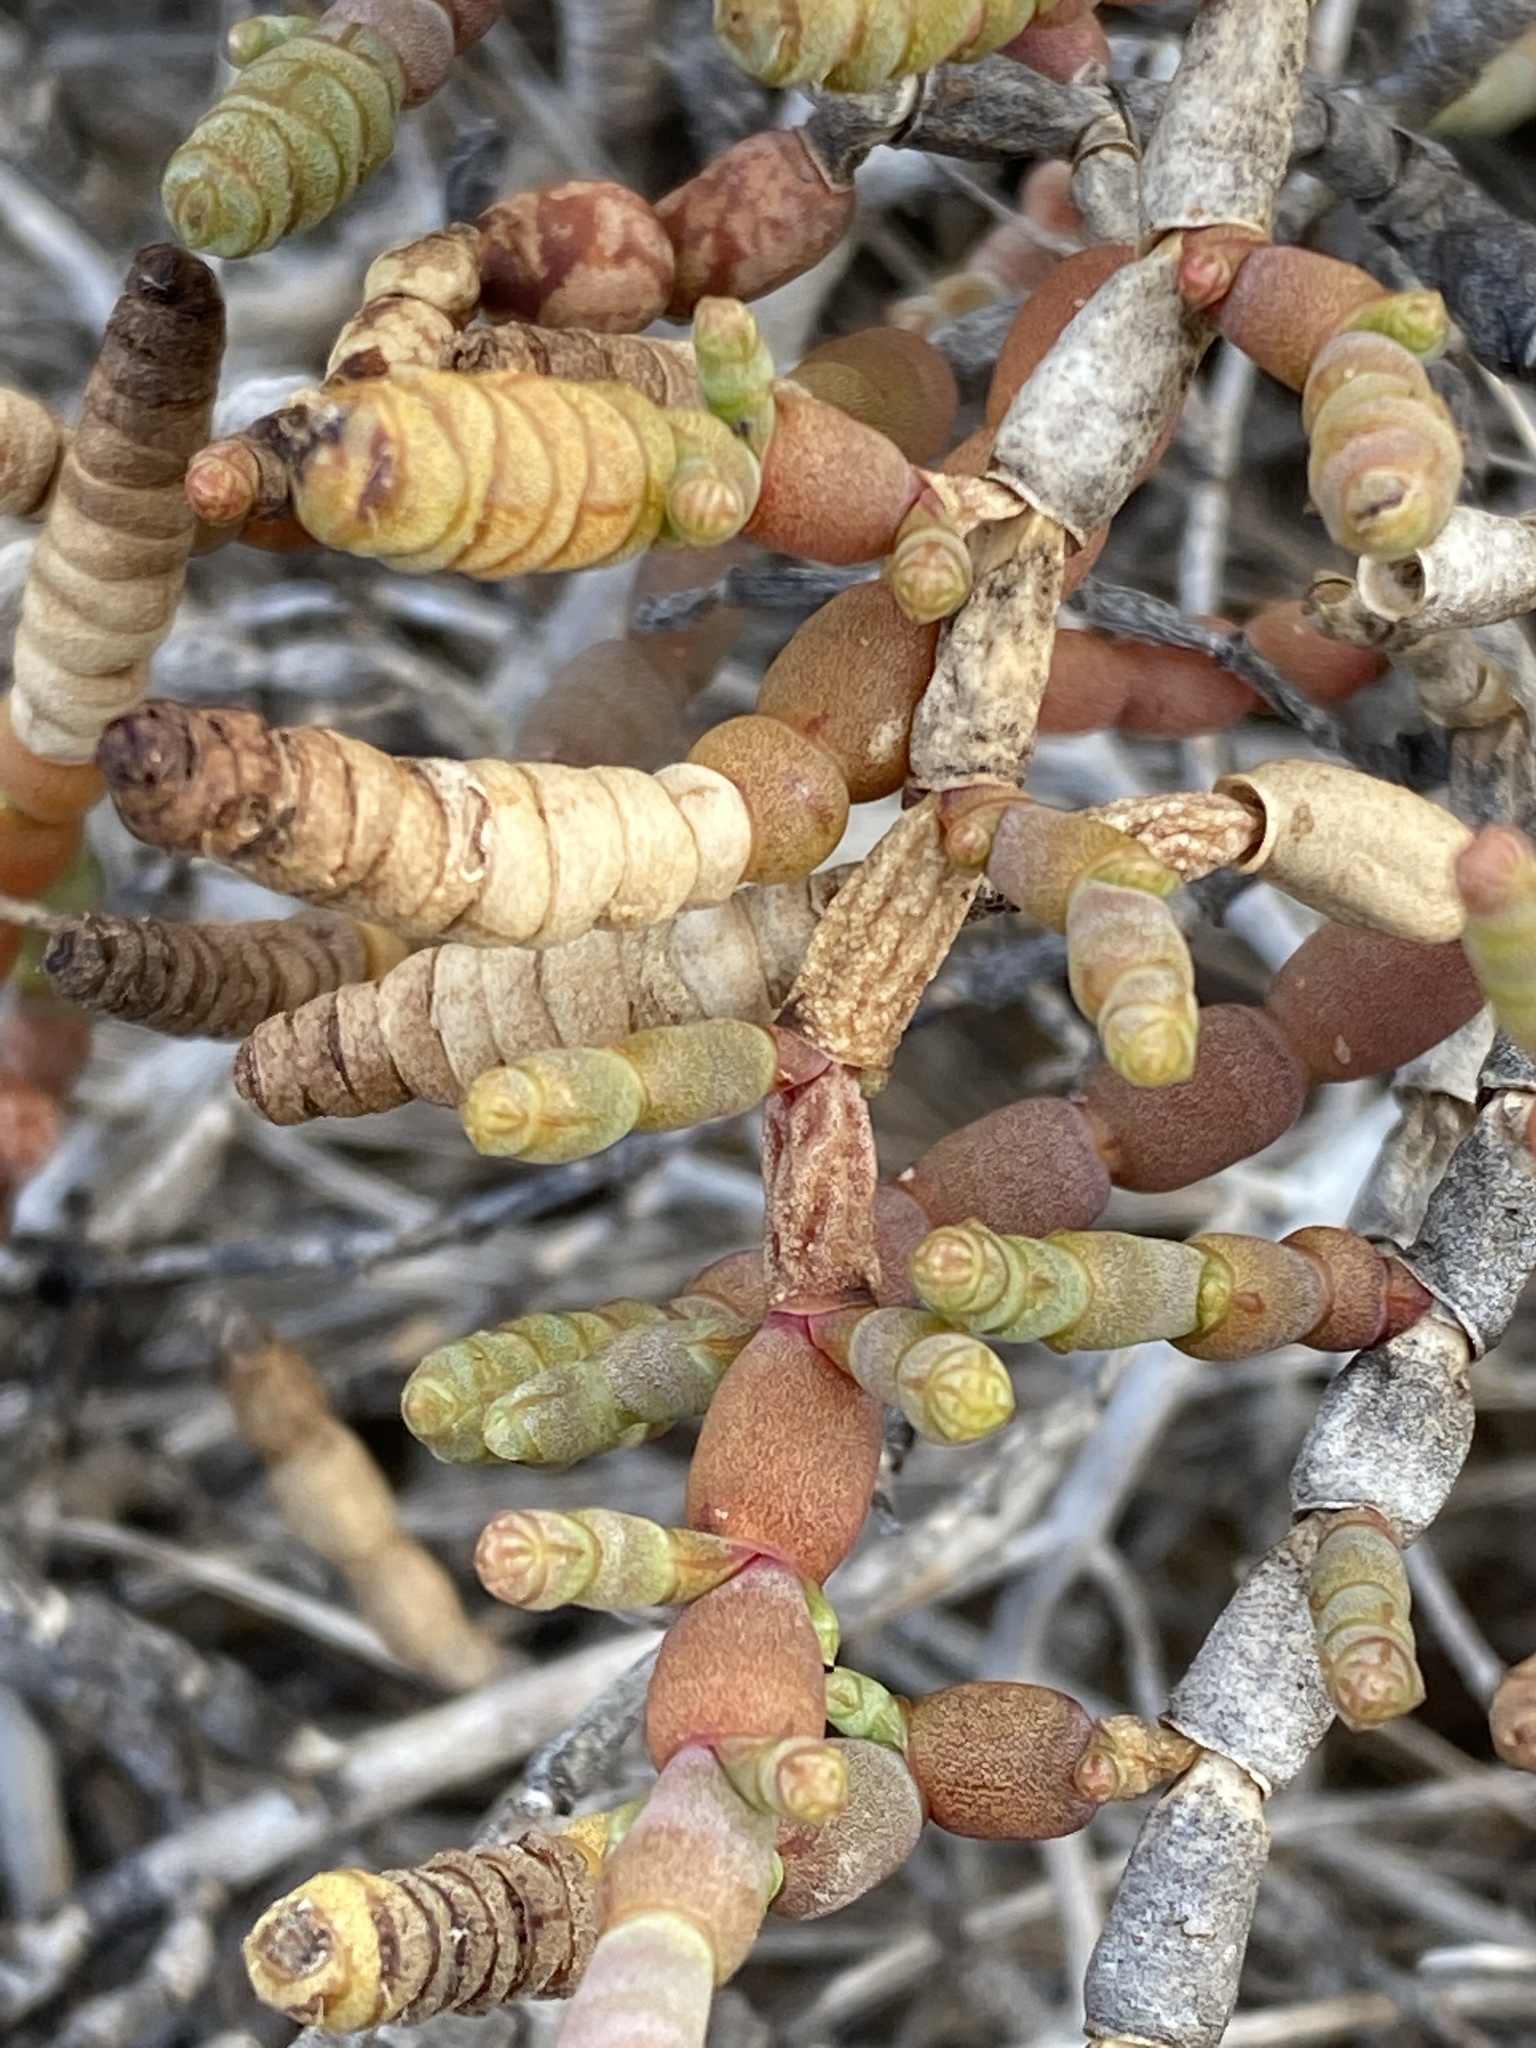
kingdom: Plantae
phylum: Tracheophyta
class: Magnoliopsida
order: Caryophyllales
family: Amaranthaceae
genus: Tecticornia
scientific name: Tecticornia indica
